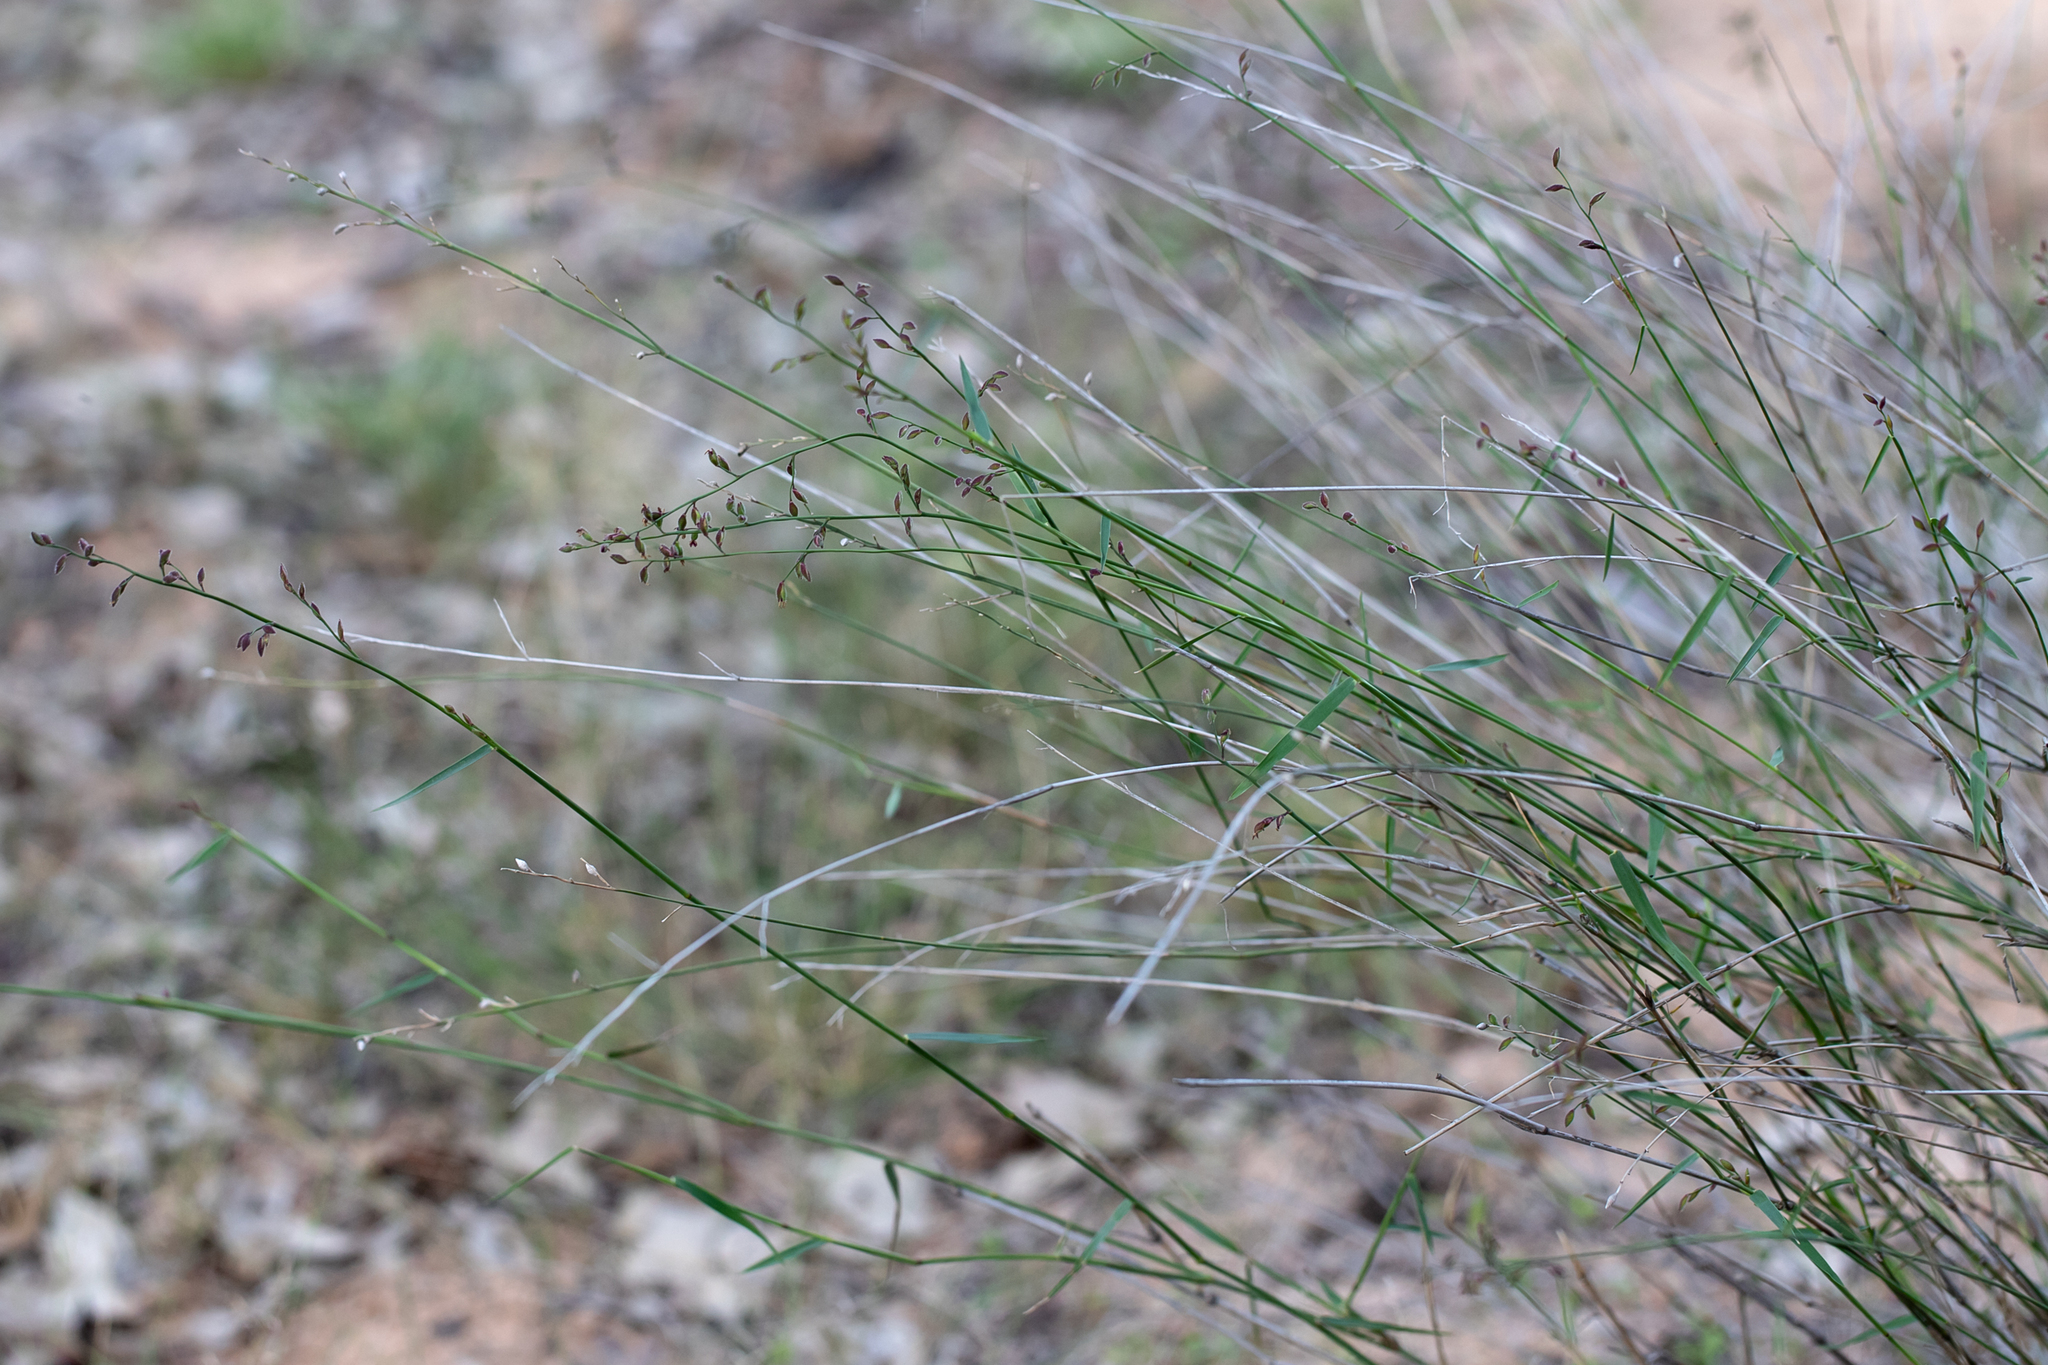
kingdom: Plantae
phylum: Tracheophyta
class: Liliopsida
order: Poales
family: Poaceae
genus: Ancistrachne
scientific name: Ancistrachne uncinulata
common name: Hooky grass
